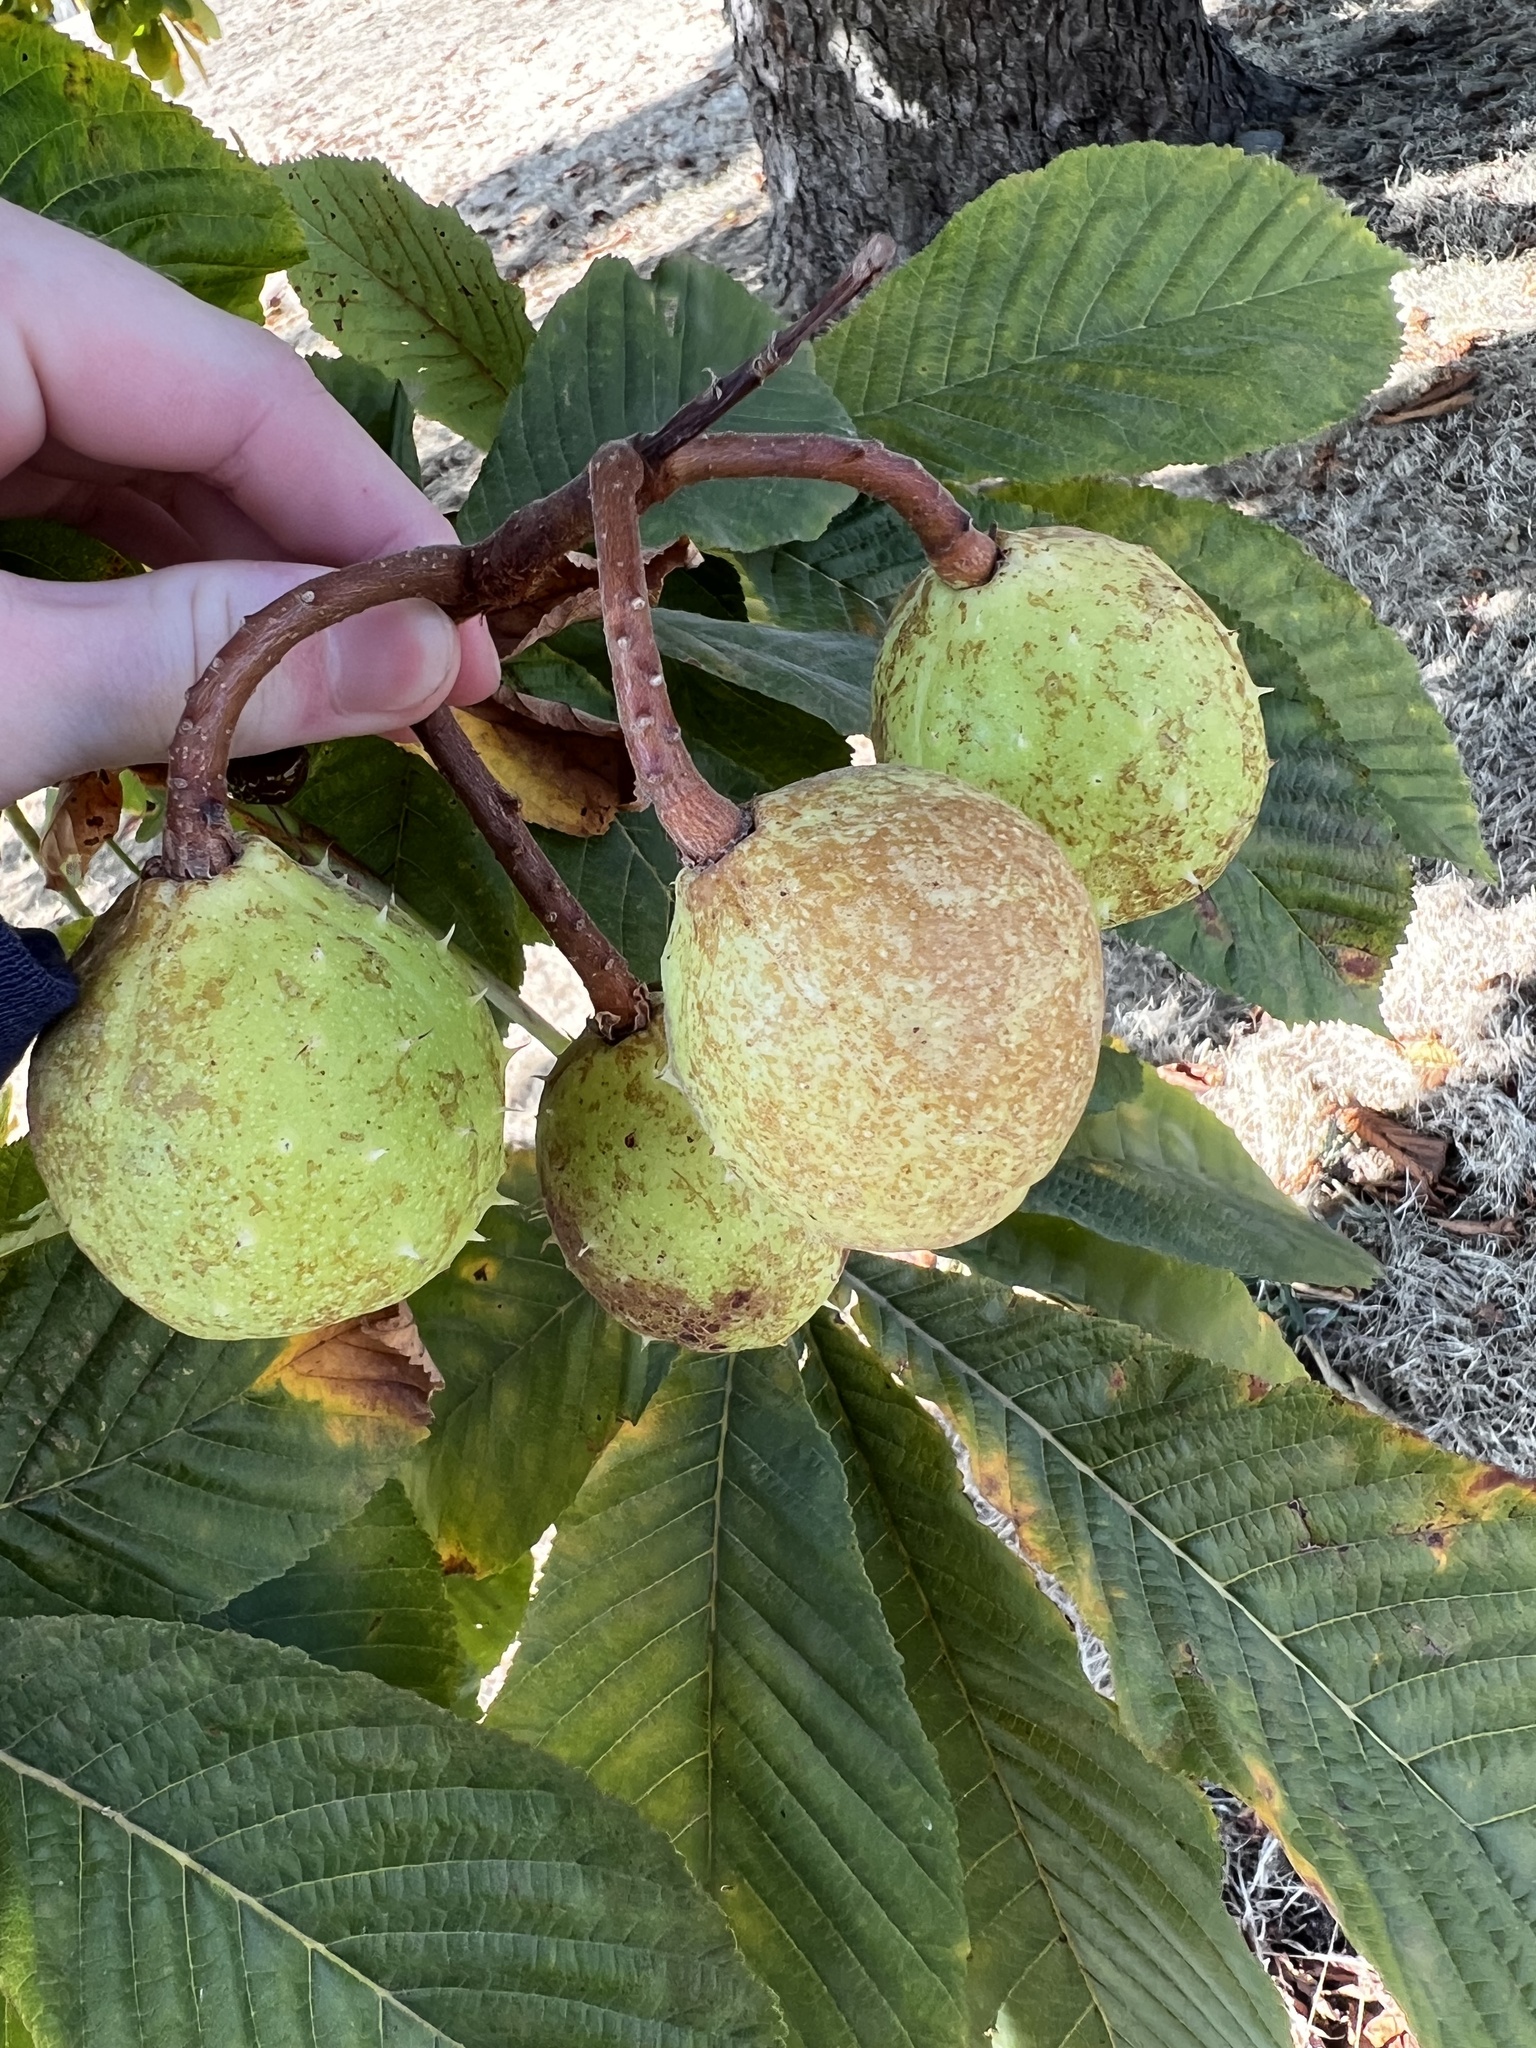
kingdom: Plantae
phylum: Tracheophyta
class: Magnoliopsida
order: Sapindales
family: Sapindaceae
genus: Aesculus
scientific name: Aesculus hippocastanum
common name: Horse-chestnut
